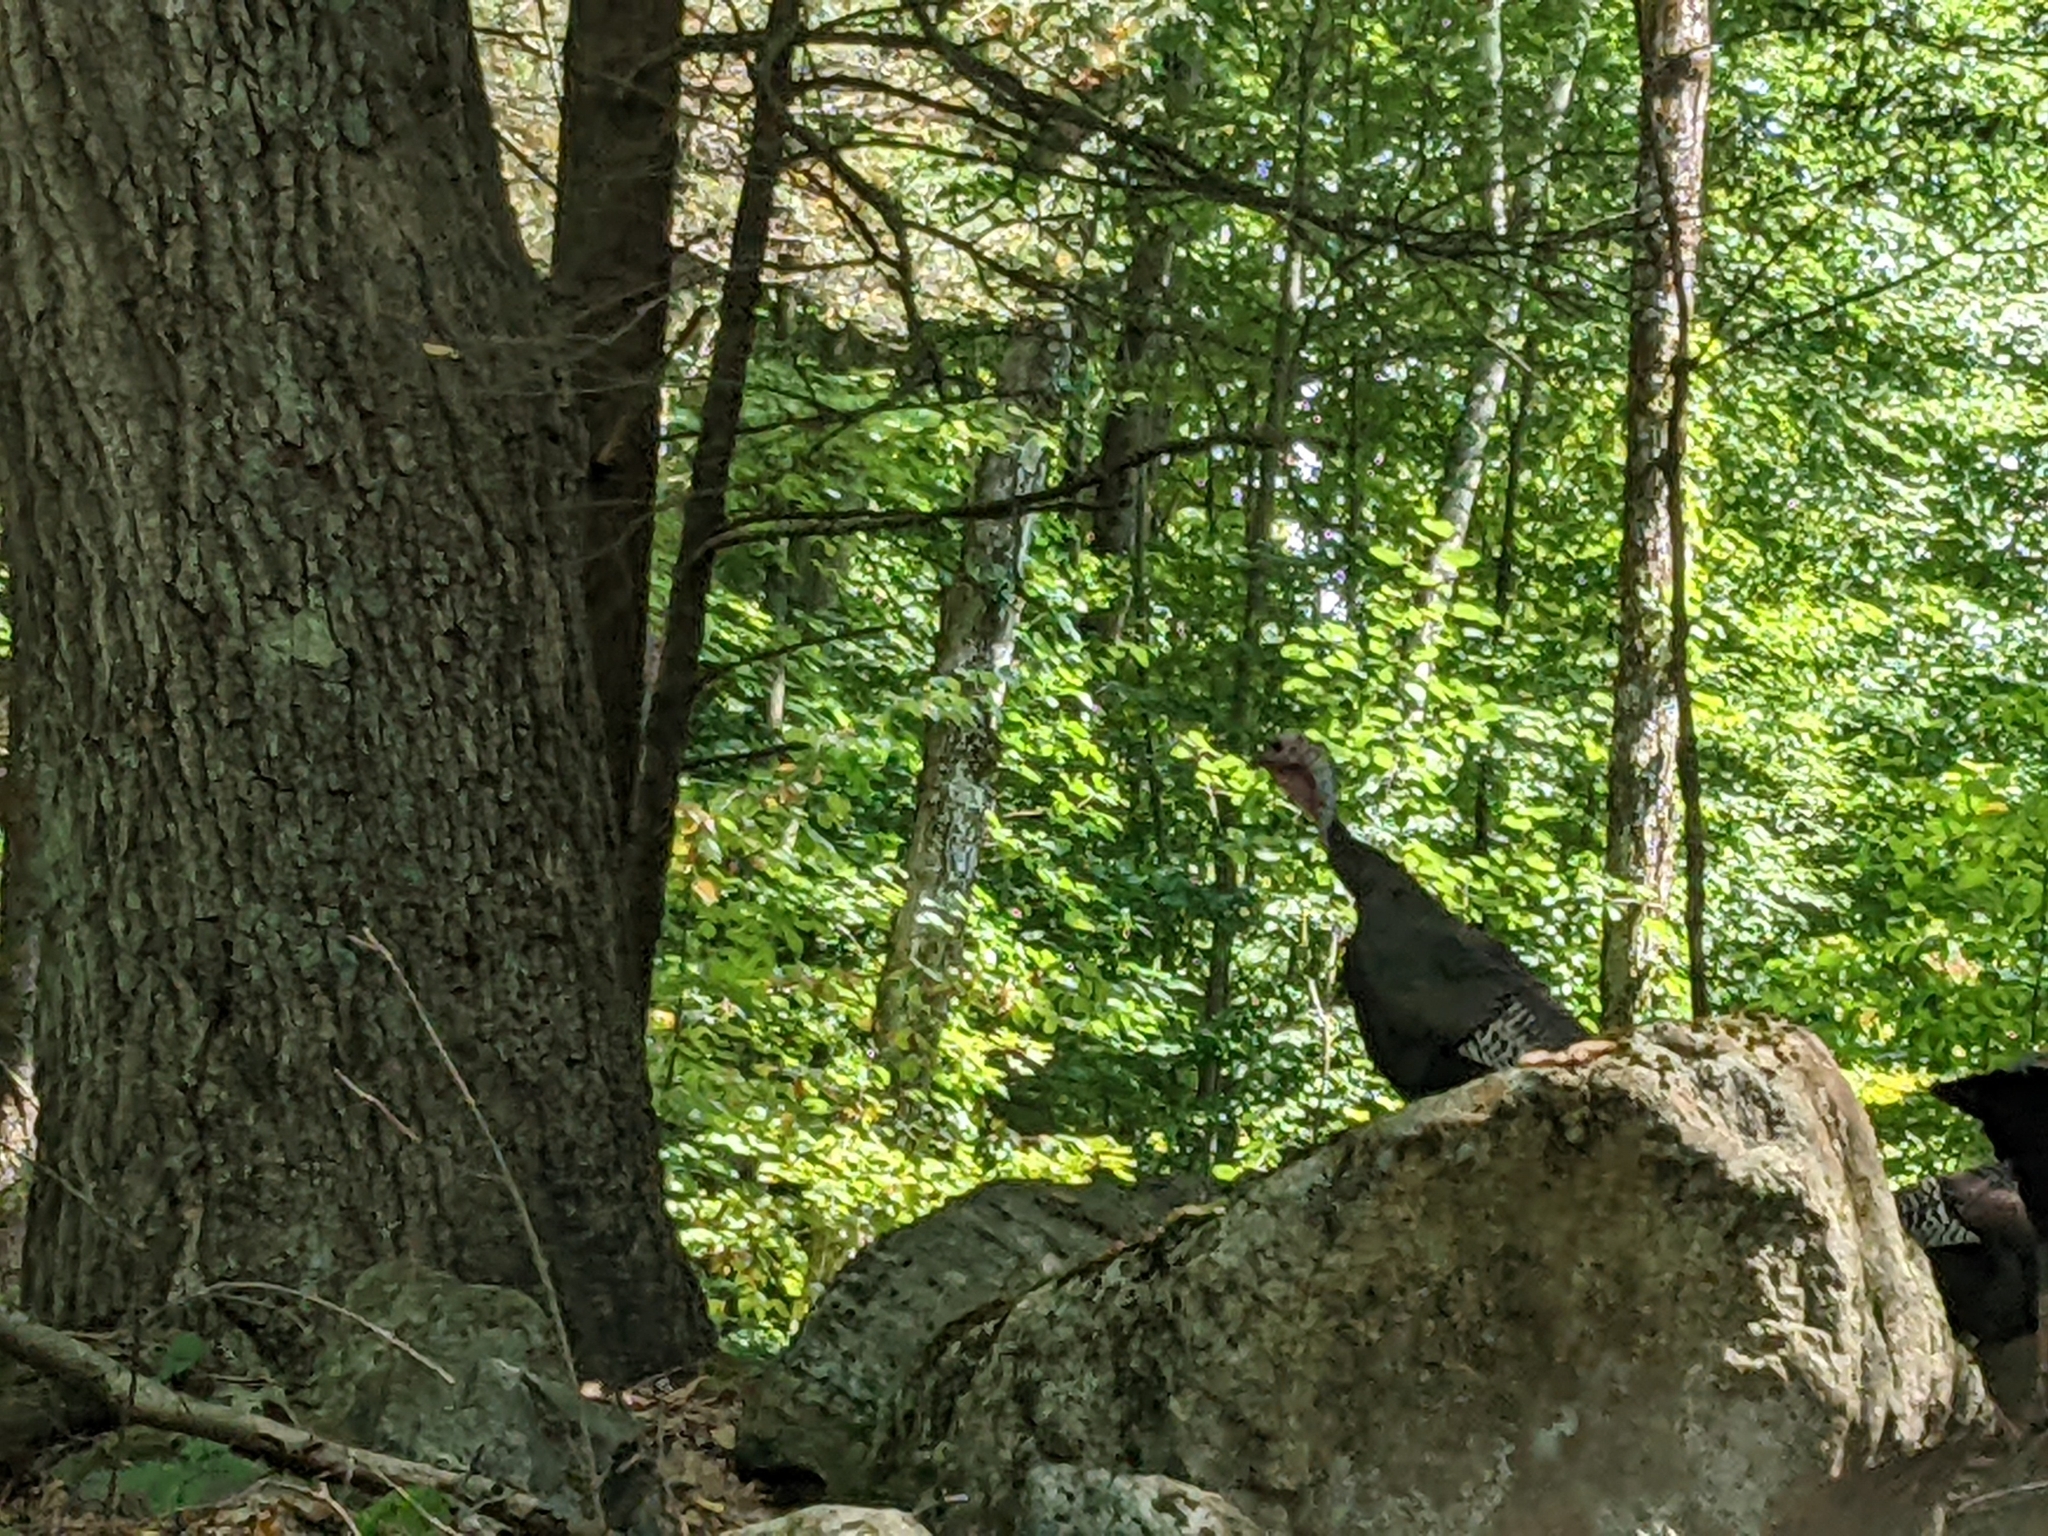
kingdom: Animalia
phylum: Chordata
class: Aves
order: Galliformes
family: Phasianidae
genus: Meleagris
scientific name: Meleagris gallopavo
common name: Wild turkey
